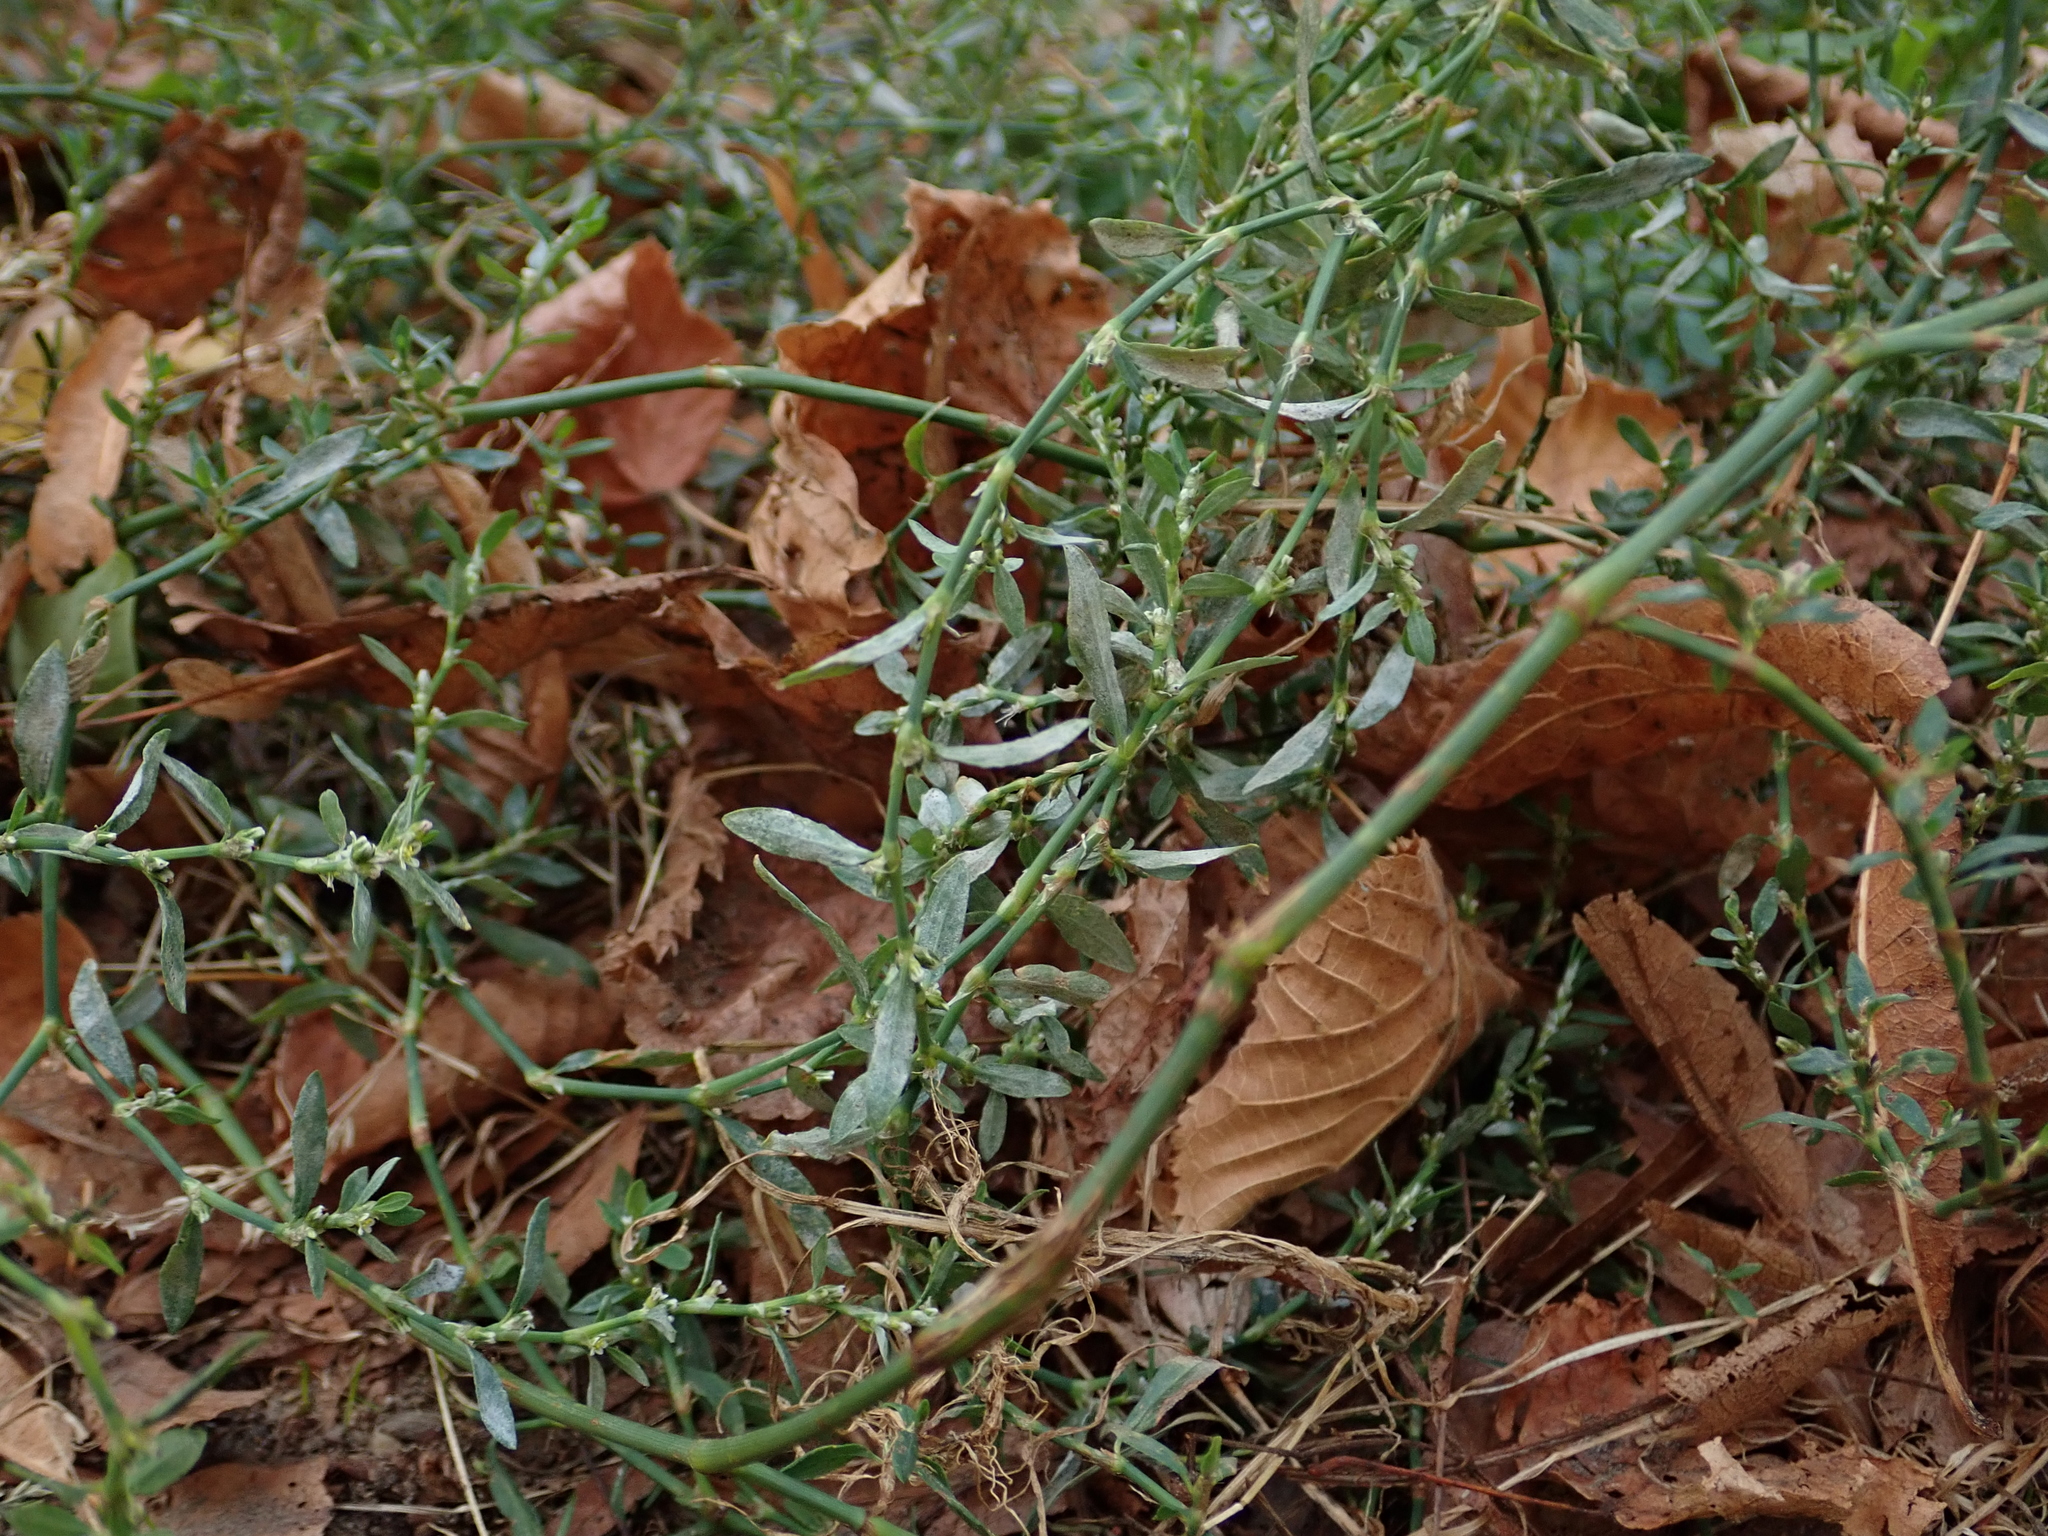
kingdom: Plantae
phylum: Tracheophyta
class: Magnoliopsida
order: Caryophyllales
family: Polygonaceae
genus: Polygonum
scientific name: Polygonum aviculare
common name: Prostrate knotweed
